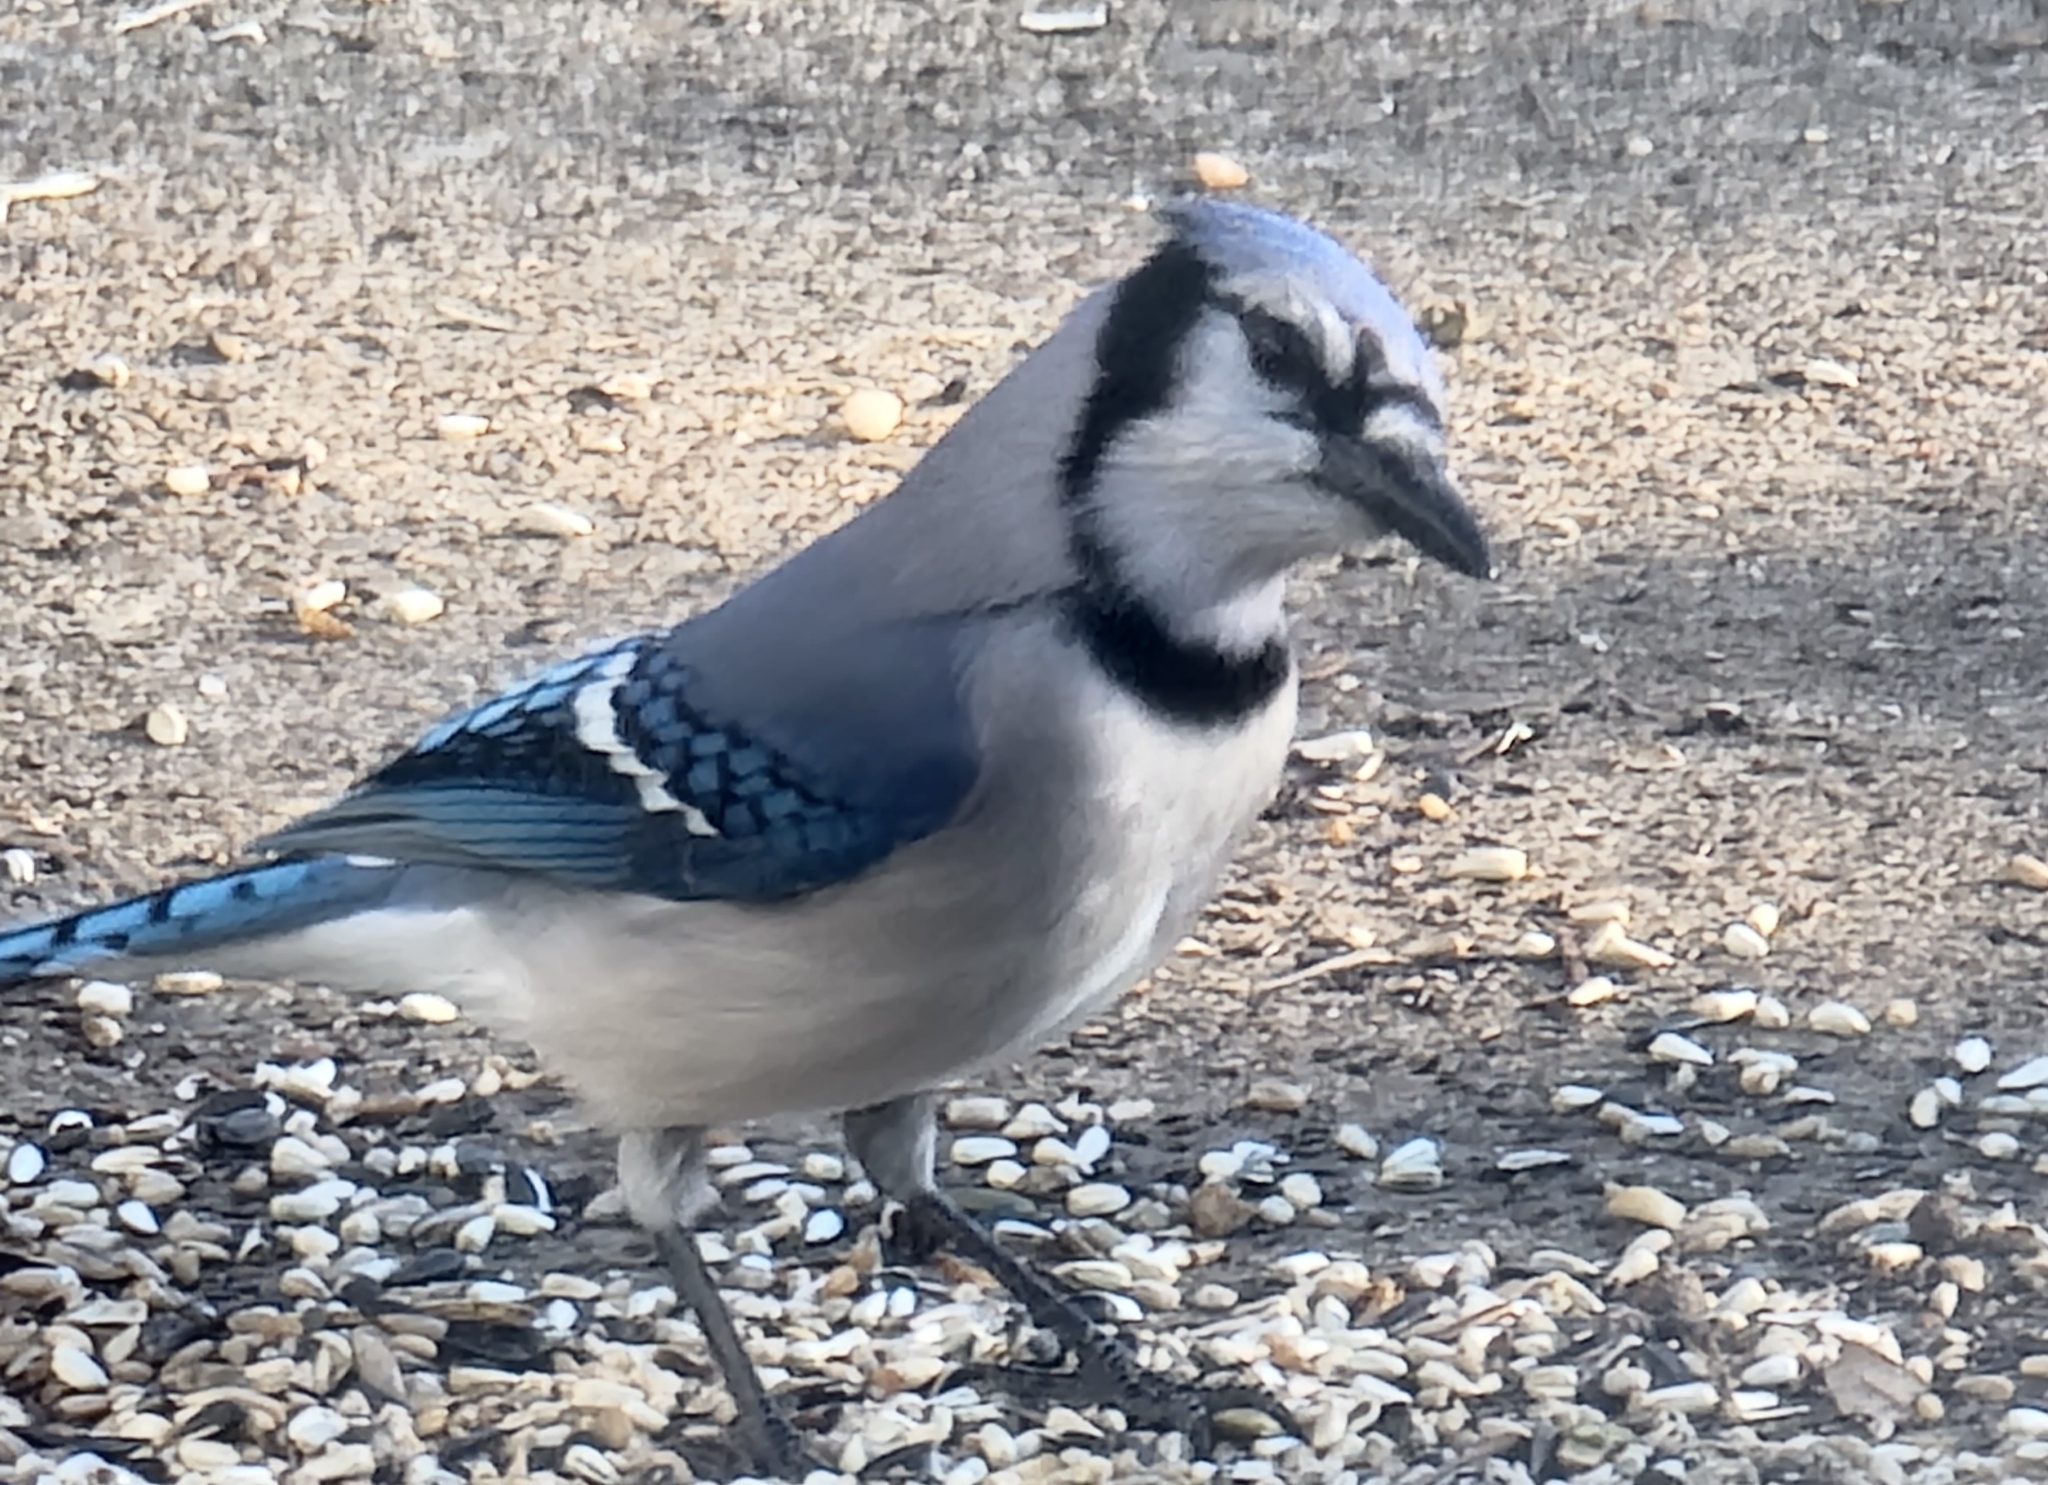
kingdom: Animalia
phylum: Chordata
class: Aves
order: Passeriformes
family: Corvidae
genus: Cyanocitta
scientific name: Cyanocitta cristata
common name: Blue jay
